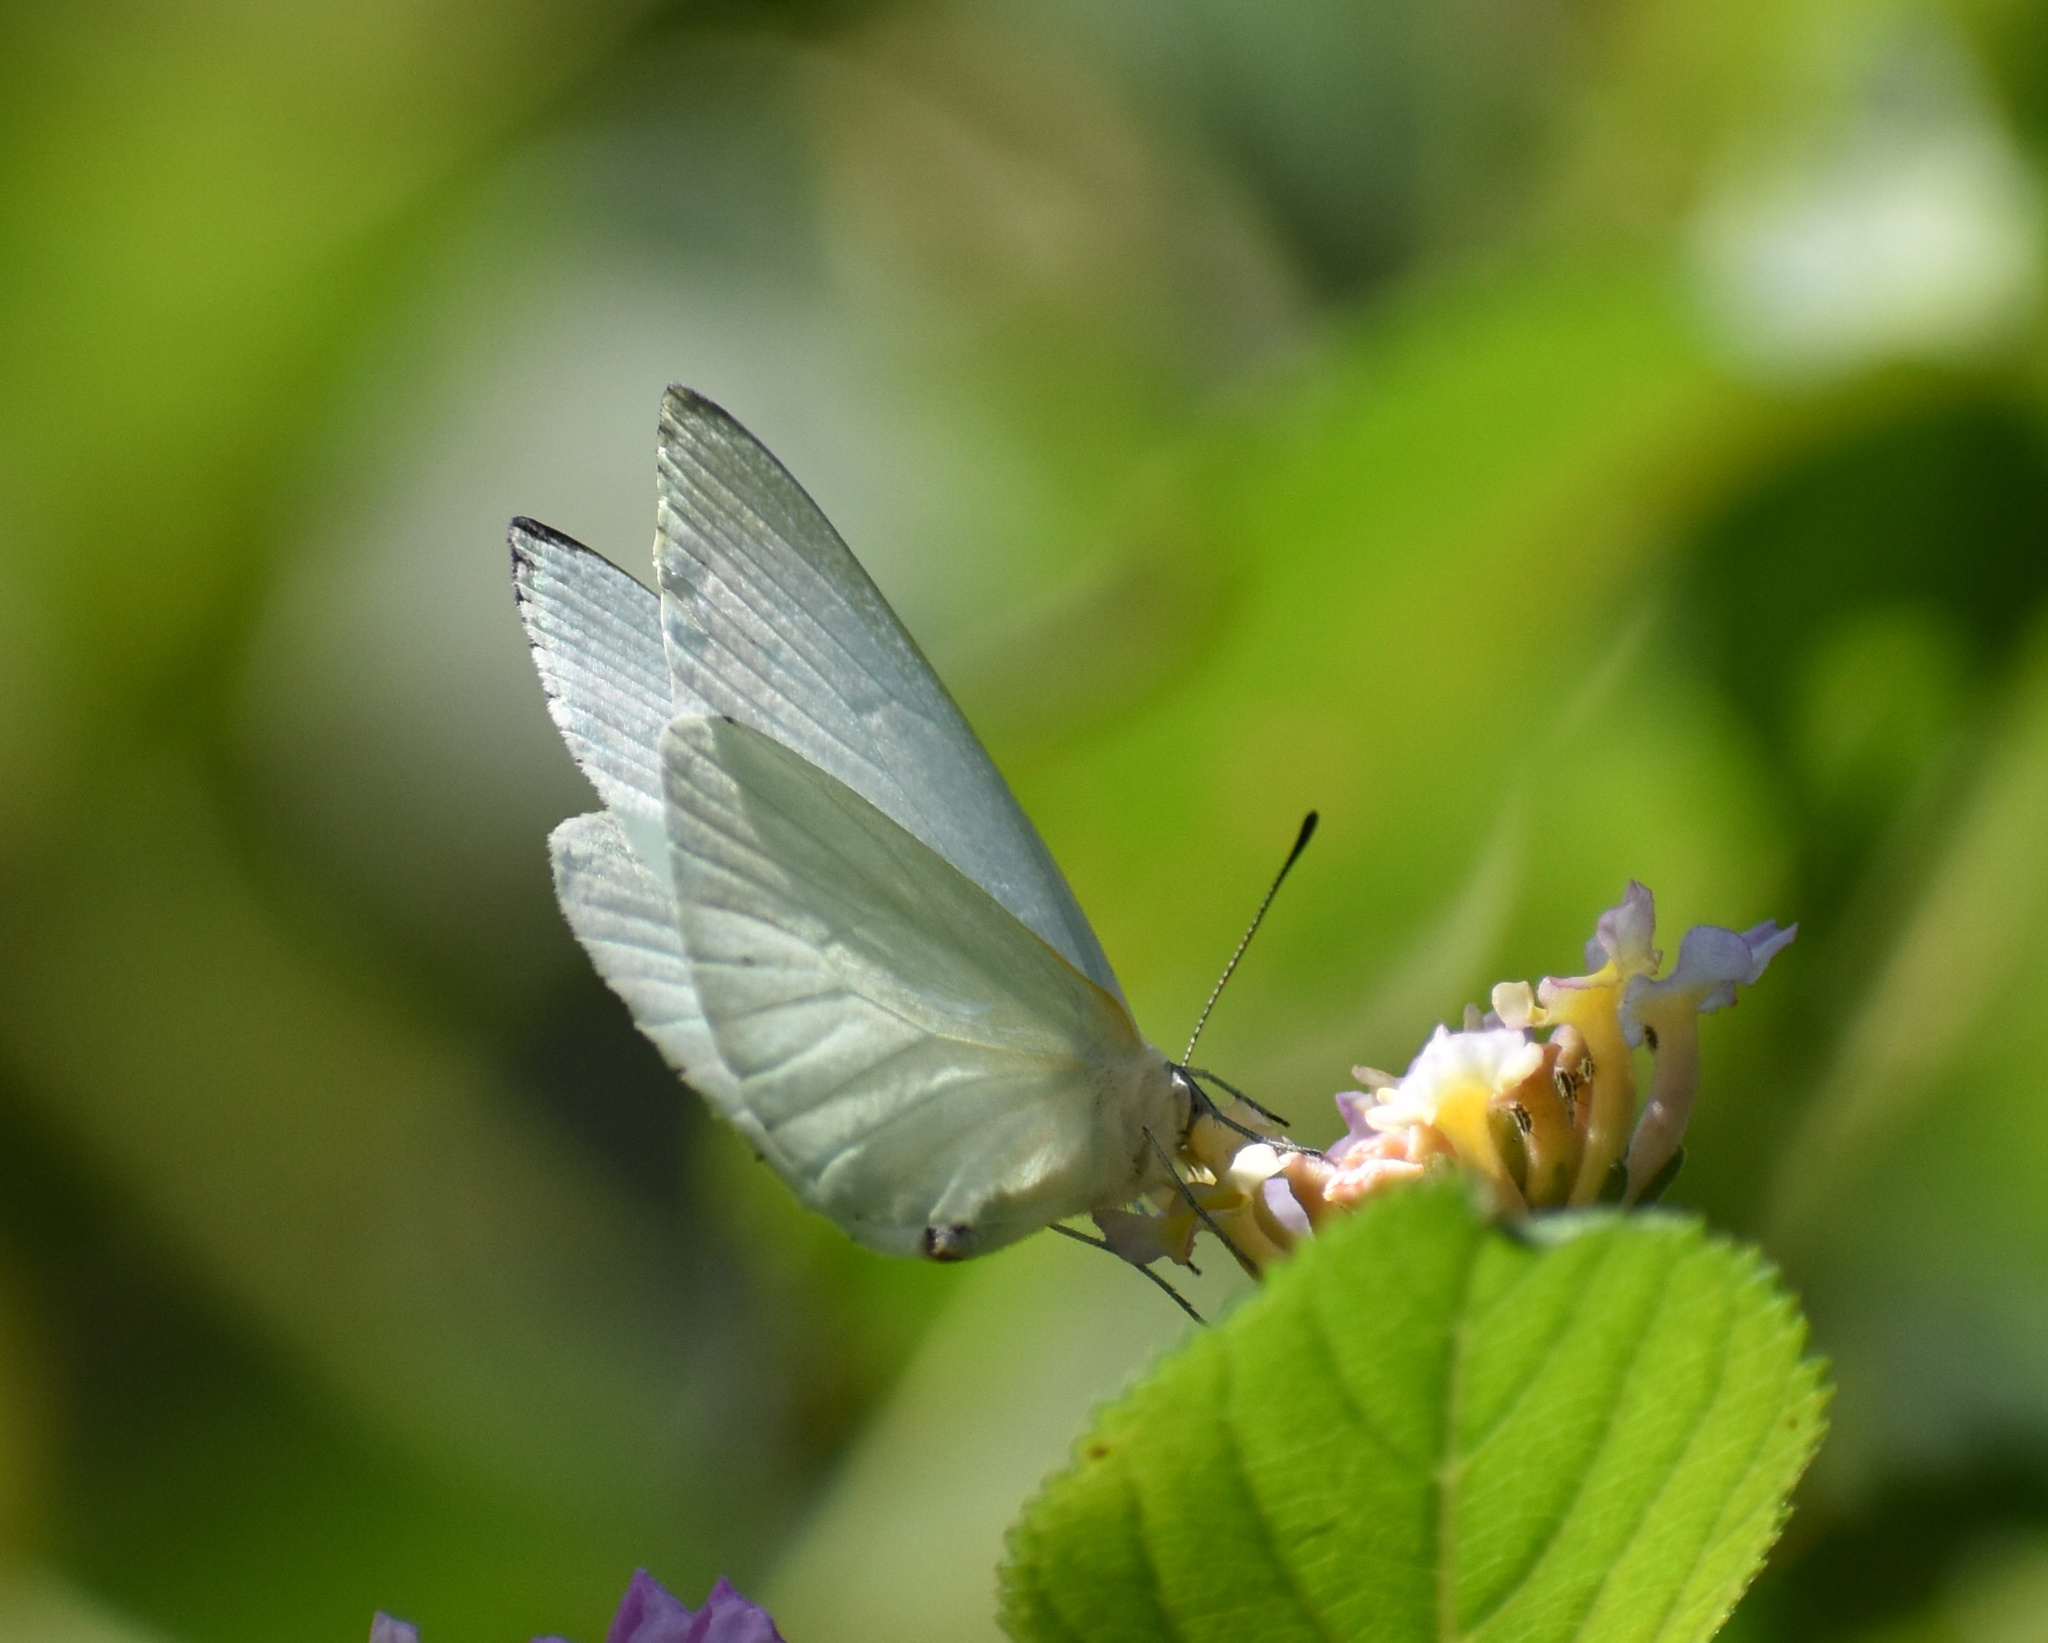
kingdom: Animalia
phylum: Arthropoda
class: Insecta
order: Lepidoptera
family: Pieridae
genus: Dixeia
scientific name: Dixeia pigea
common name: Ant-heap small white
